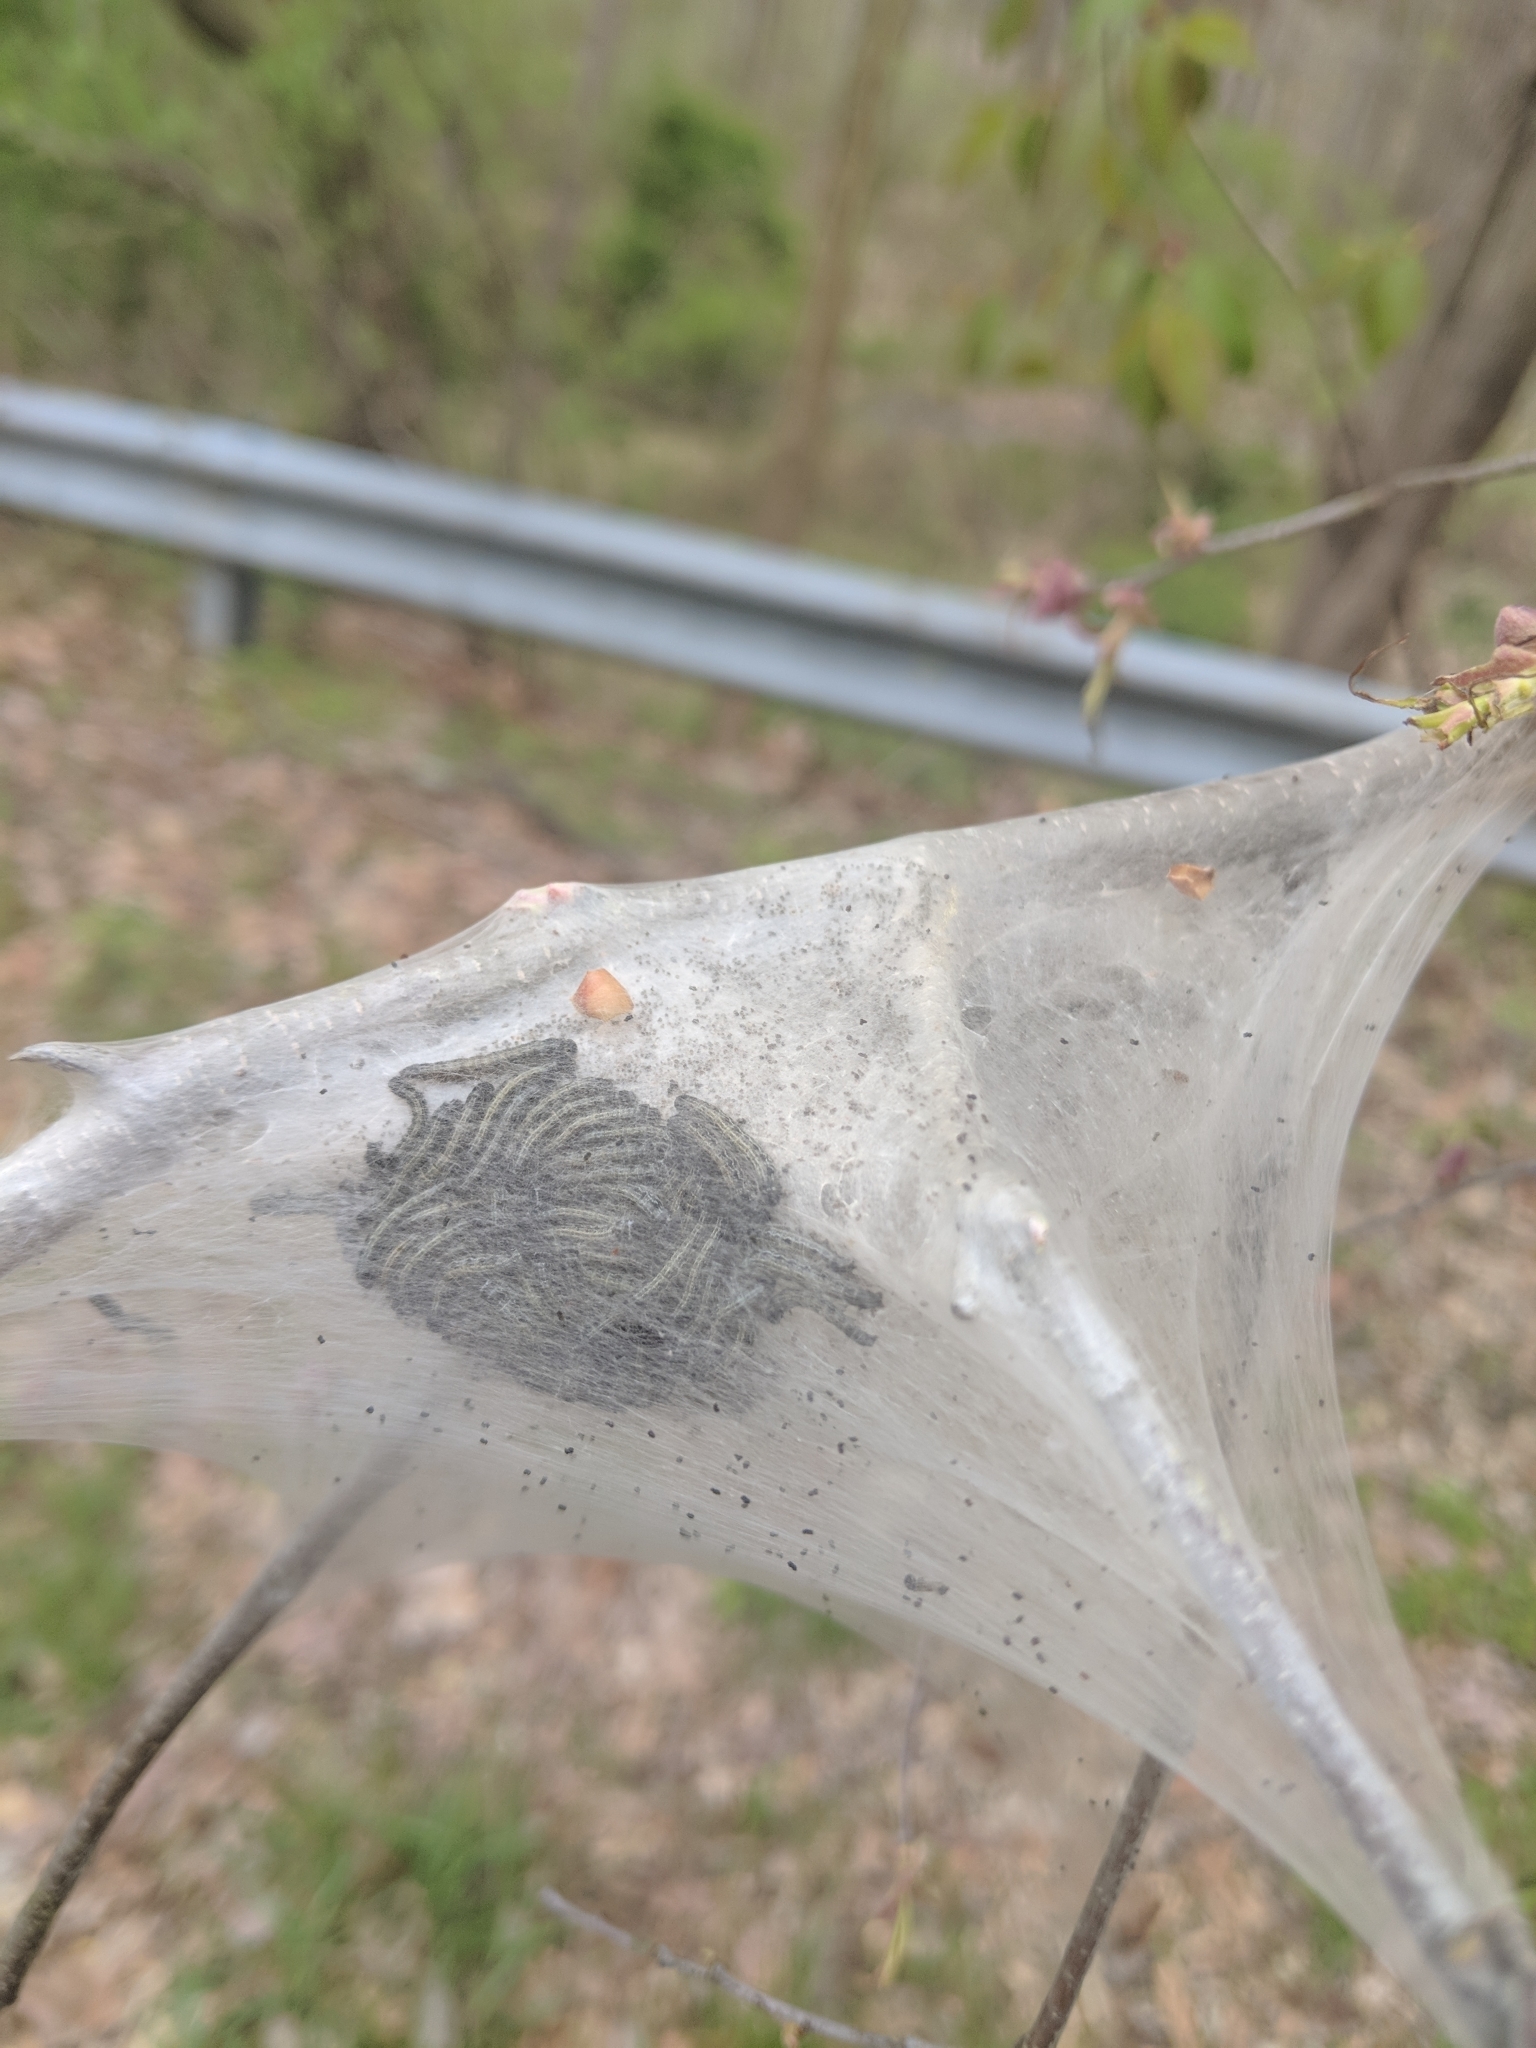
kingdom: Animalia
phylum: Arthropoda
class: Insecta
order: Lepidoptera
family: Lasiocampidae
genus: Malacosoma
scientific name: Malacosoma americana
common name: Eastern tent caterpillar moth
